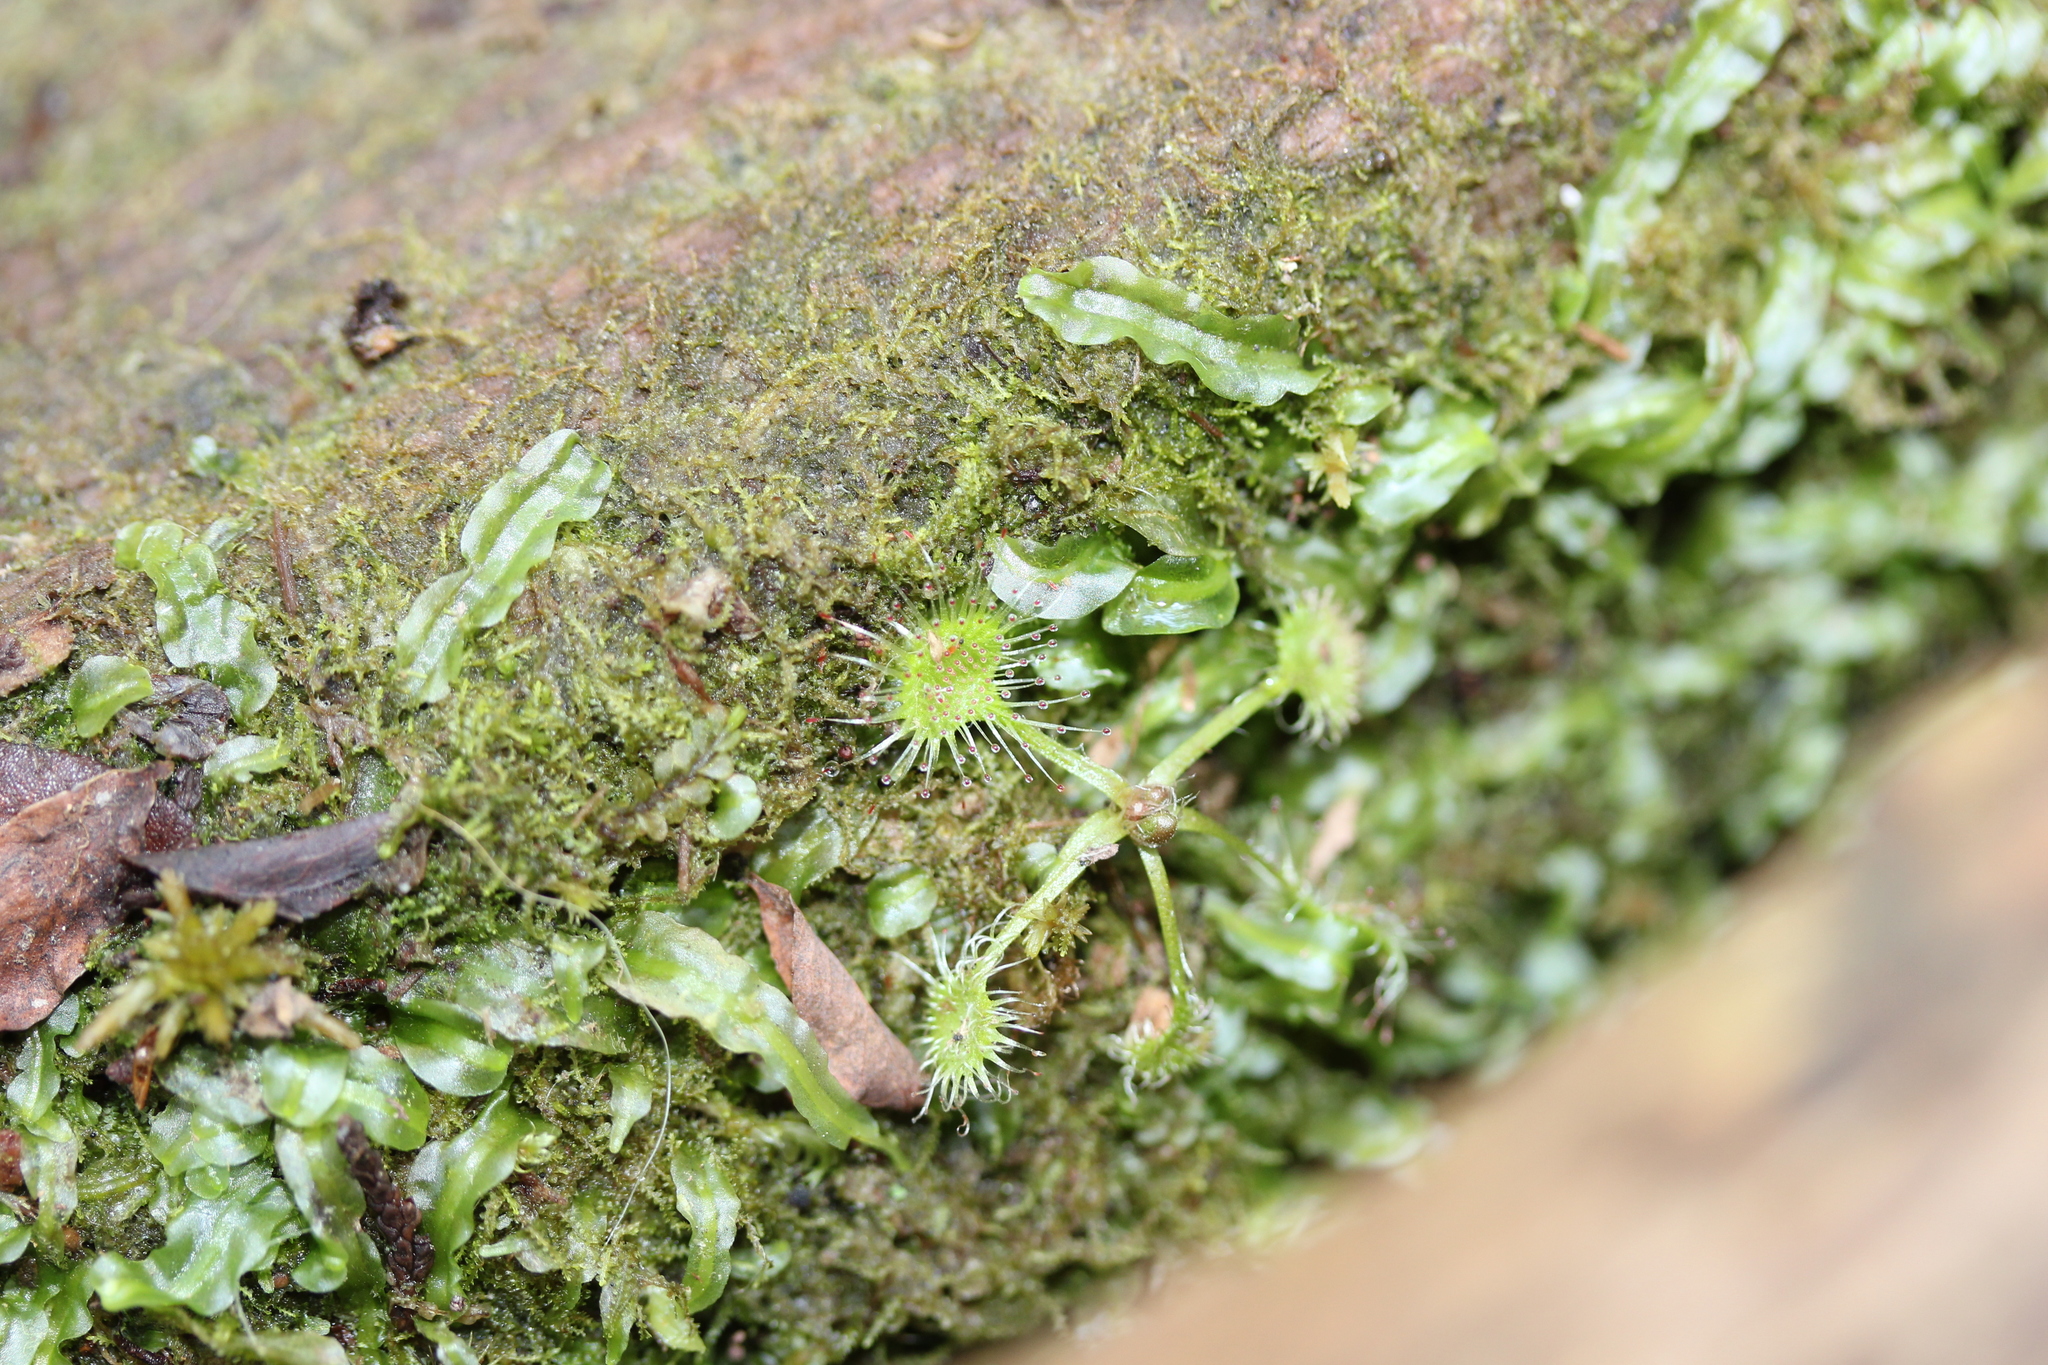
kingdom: Plantae
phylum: Tracheophyta
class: Magnoliopsida
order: Caryophyllales
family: Droseraceae
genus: Drosera
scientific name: Drosera rotundifolia
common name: Round-leaved sundew
